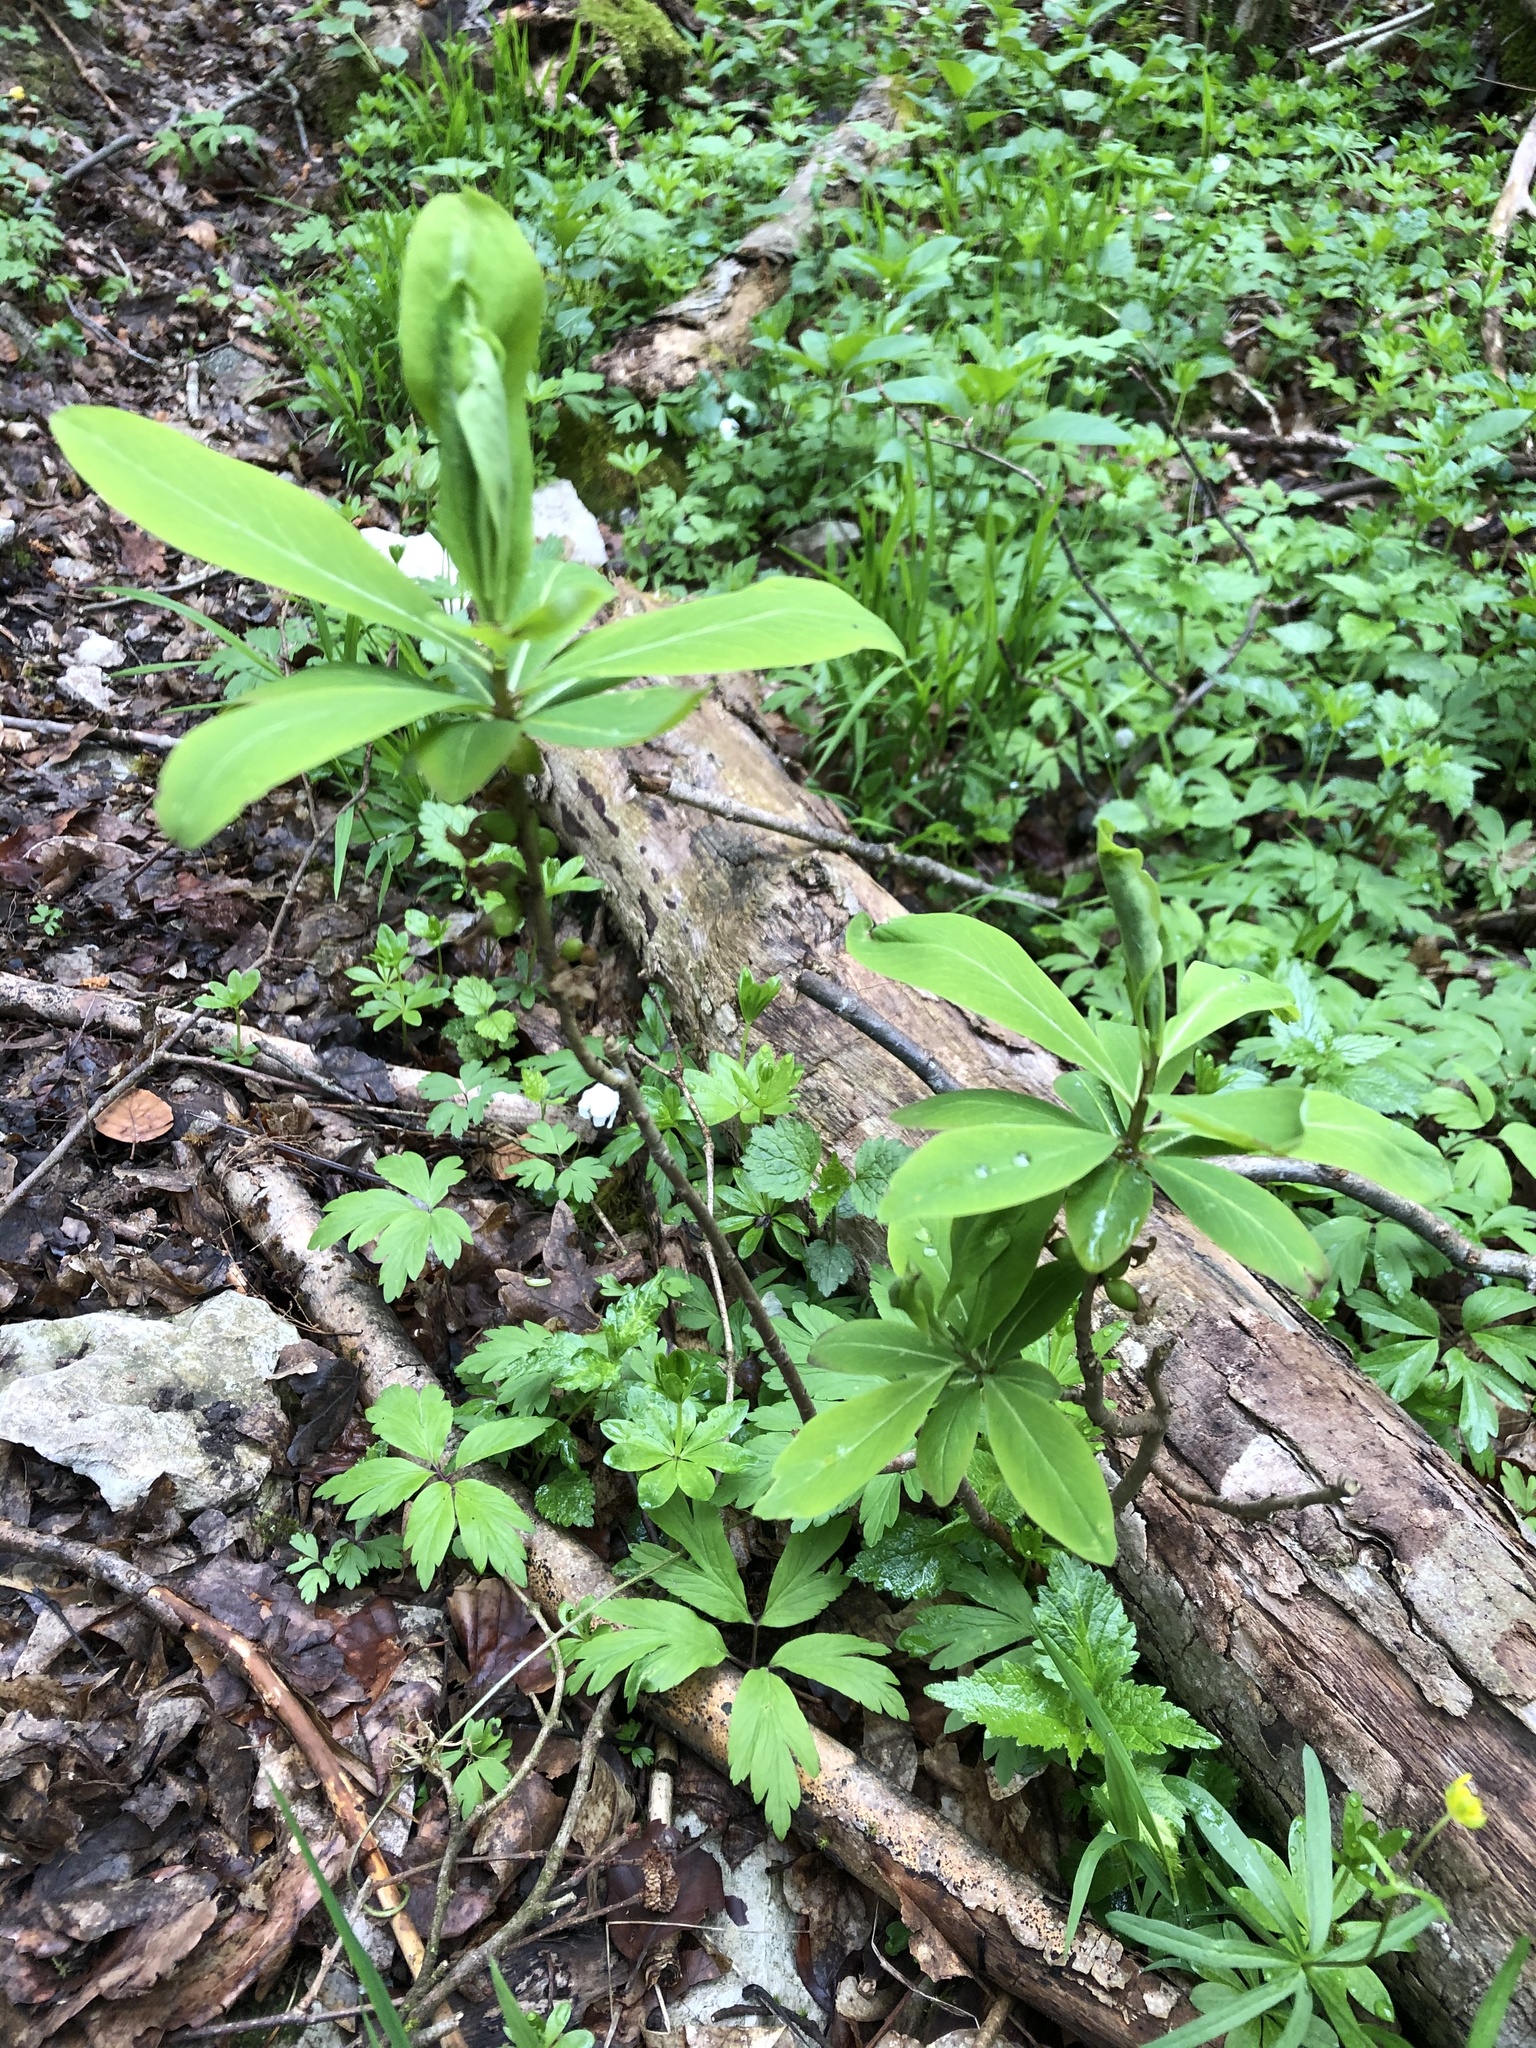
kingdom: Plantae
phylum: Tracheophyta
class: Magnoliopsida
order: Malvales
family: Thymelaeaceae
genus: Daphne
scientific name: Daphne mezereum
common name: Mezereon
